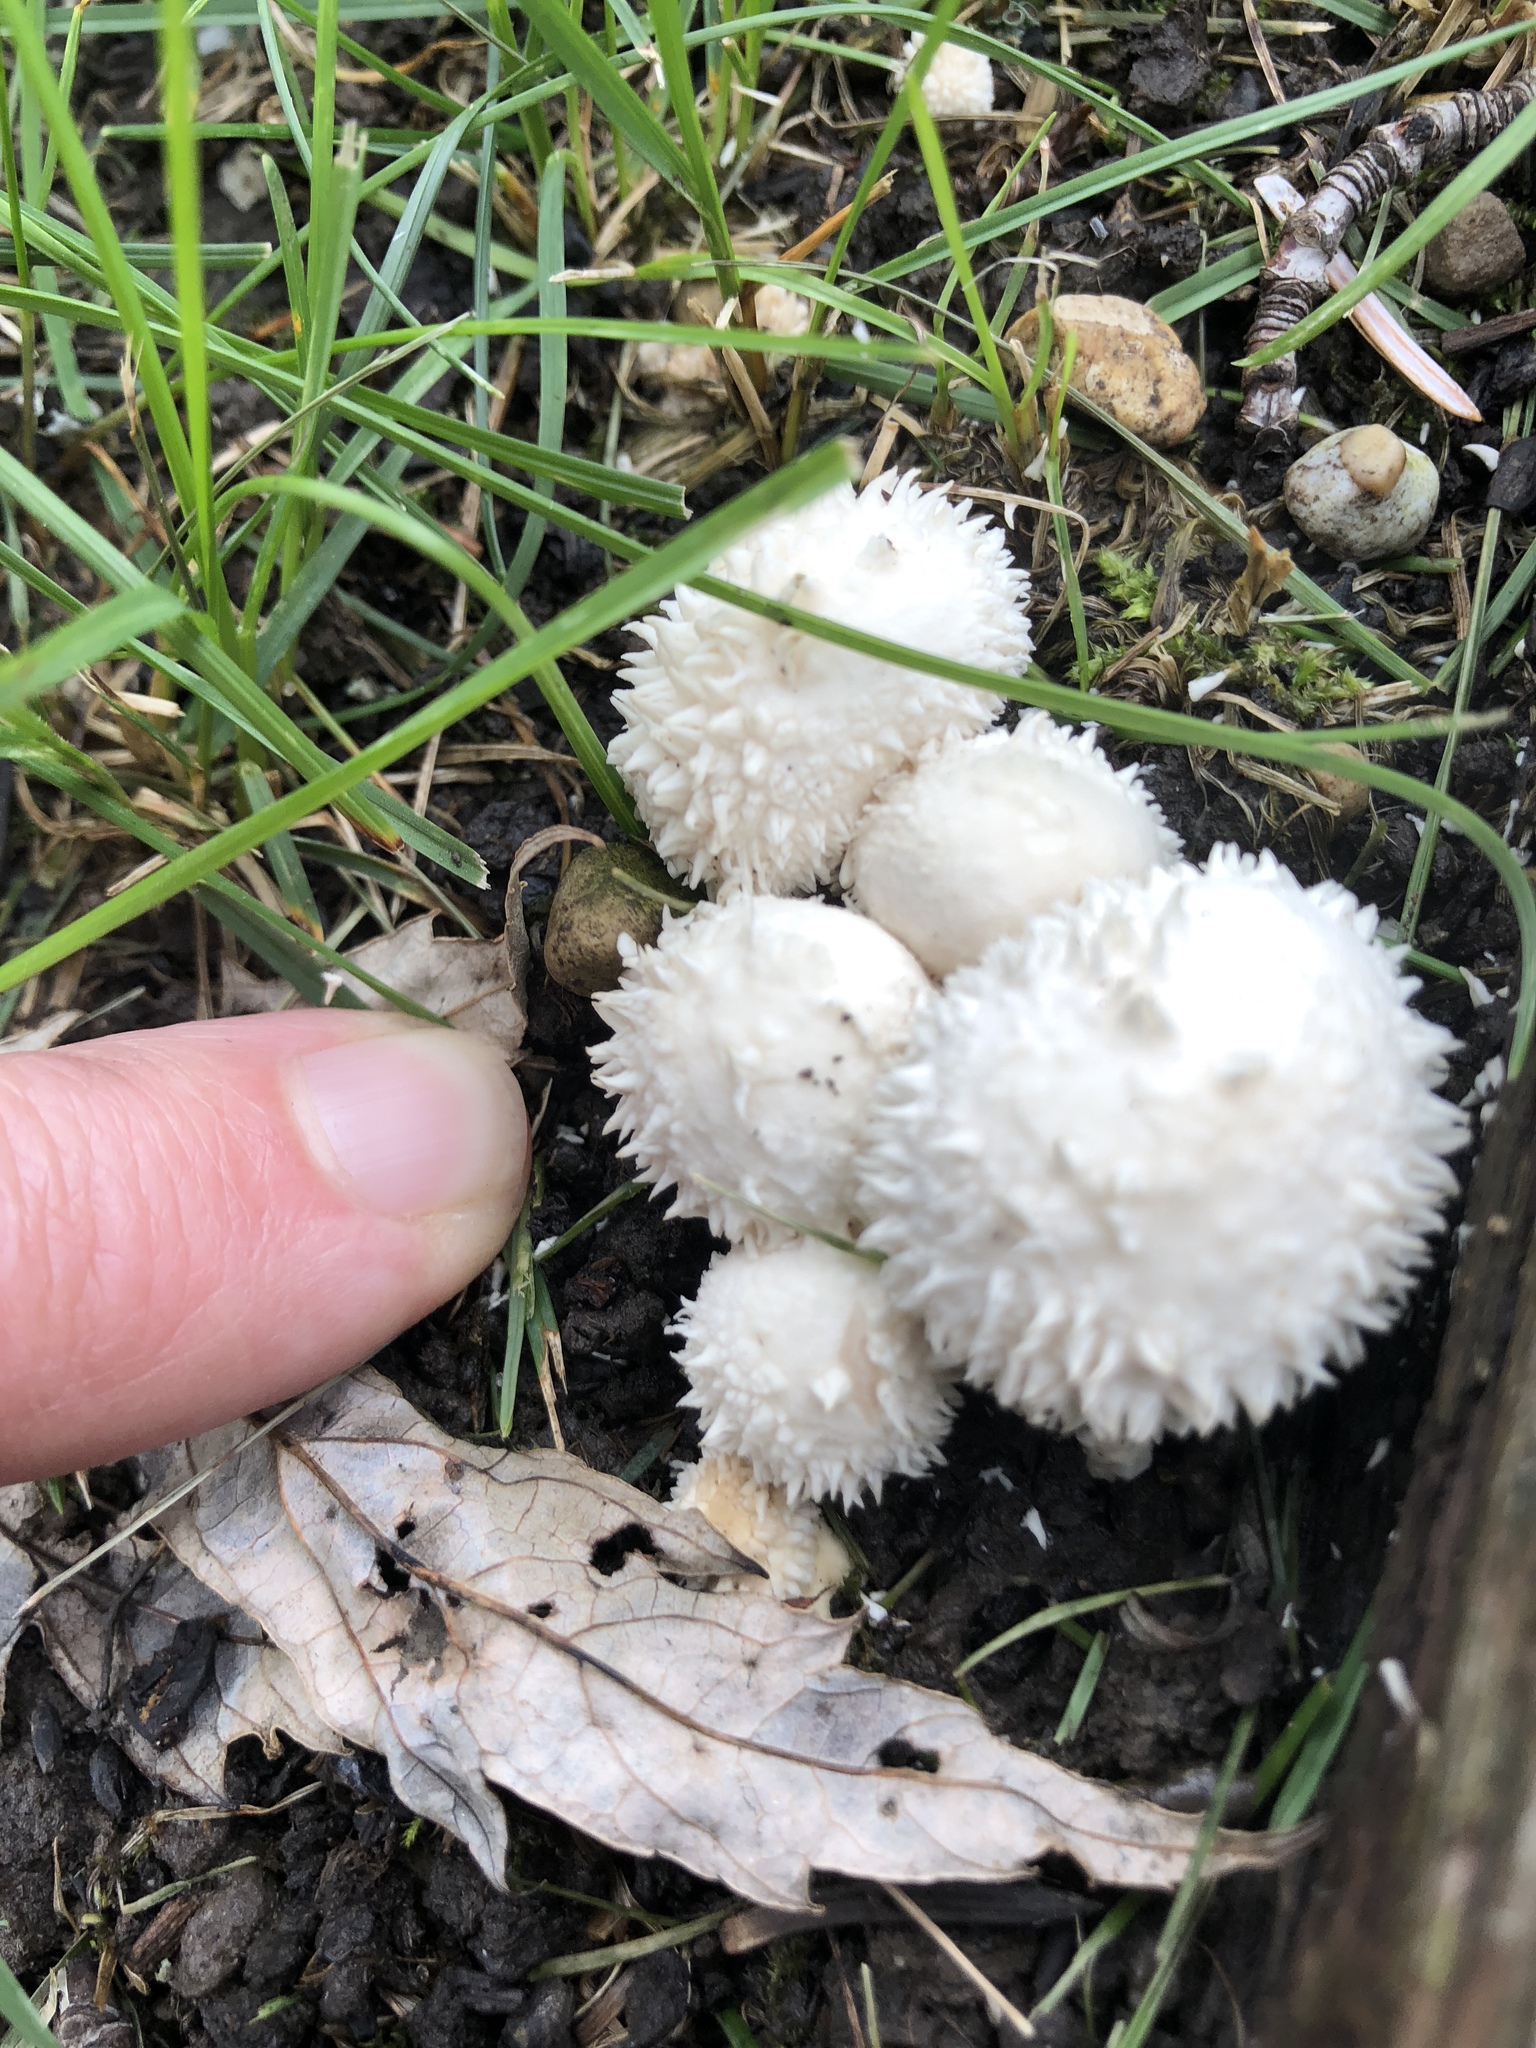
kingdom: Fungi
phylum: Basidiomycota
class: Agaricomycetes
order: Agaricales
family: Lycoperdaceae
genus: Lycoperdon
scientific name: Lycoperdon perlatum
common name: Common puffball
